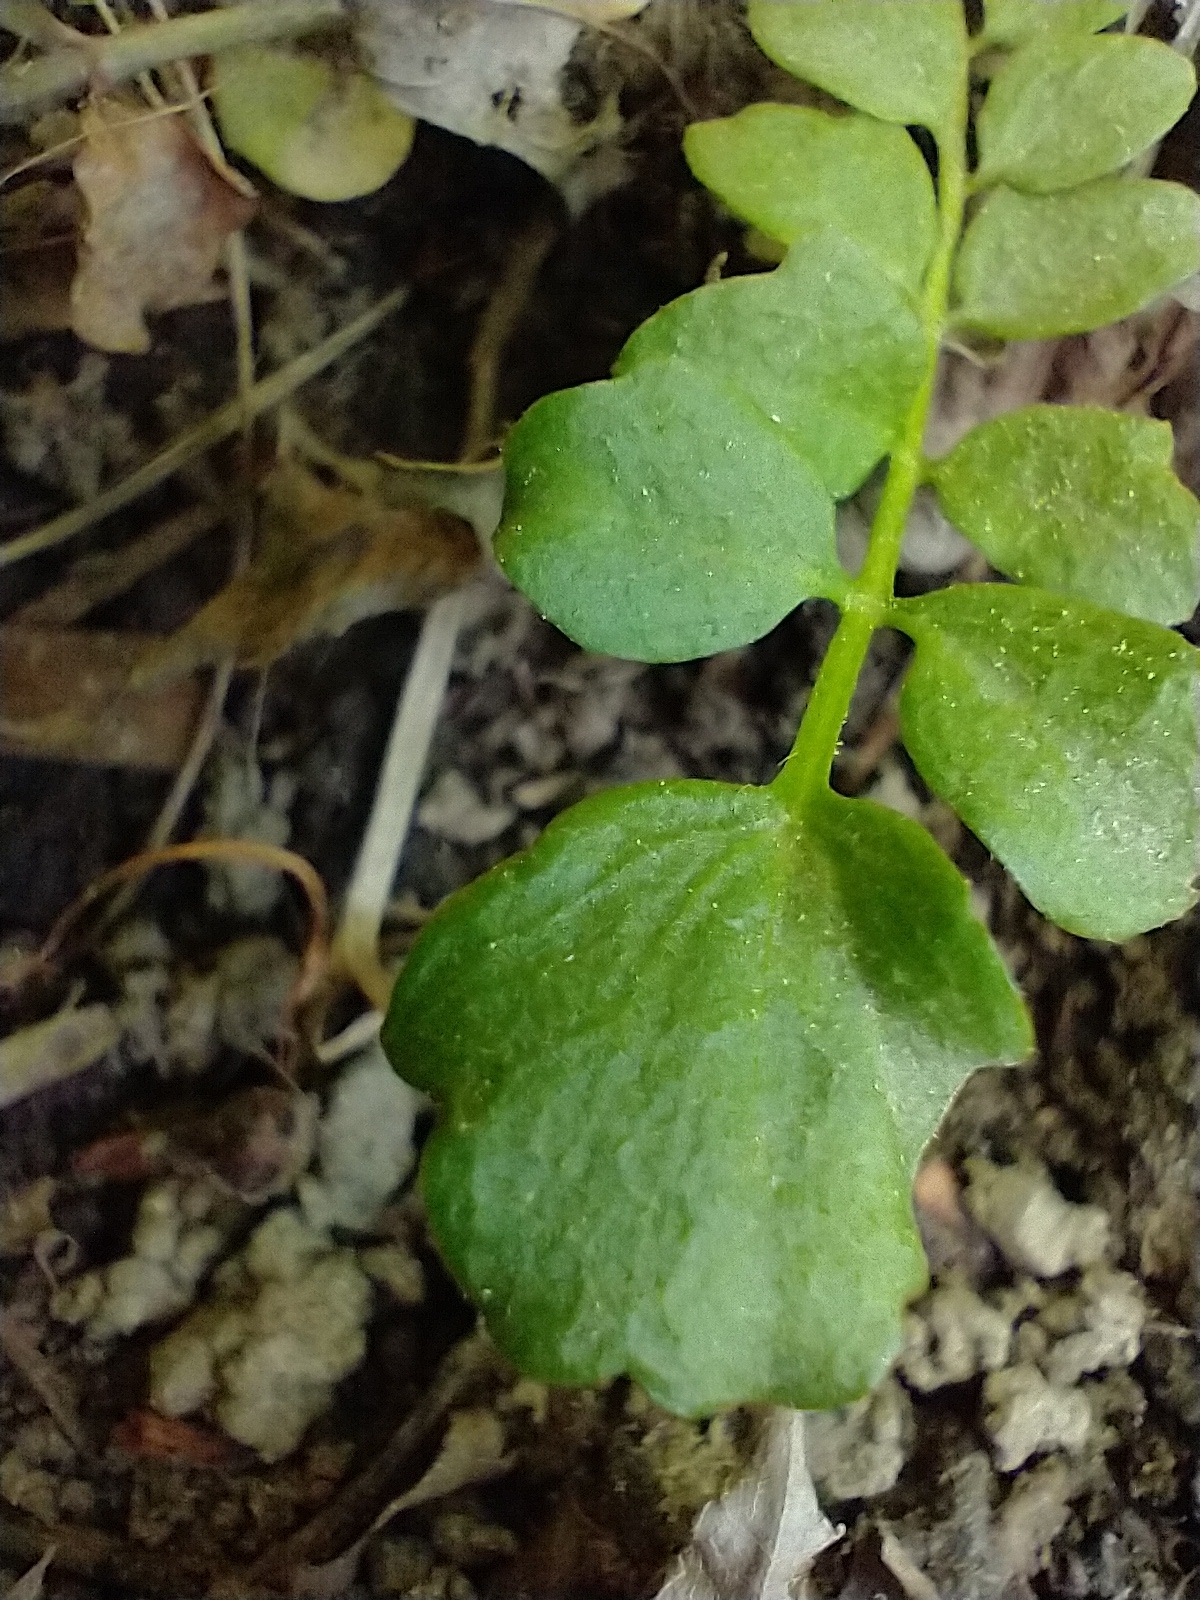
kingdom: Plantae
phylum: Tracheophyta
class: Magnoliopsida
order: Brassicales
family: Brassicaceae
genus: Cardamine
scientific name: Cardamine pratensis
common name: Cuckoo flower
